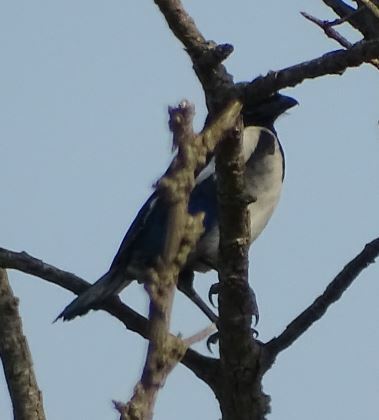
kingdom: Animalia
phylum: Chordata
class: Aves
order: Passeriformes
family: Corvidae
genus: Pica
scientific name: Pica pica
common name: Eurasian magpie
